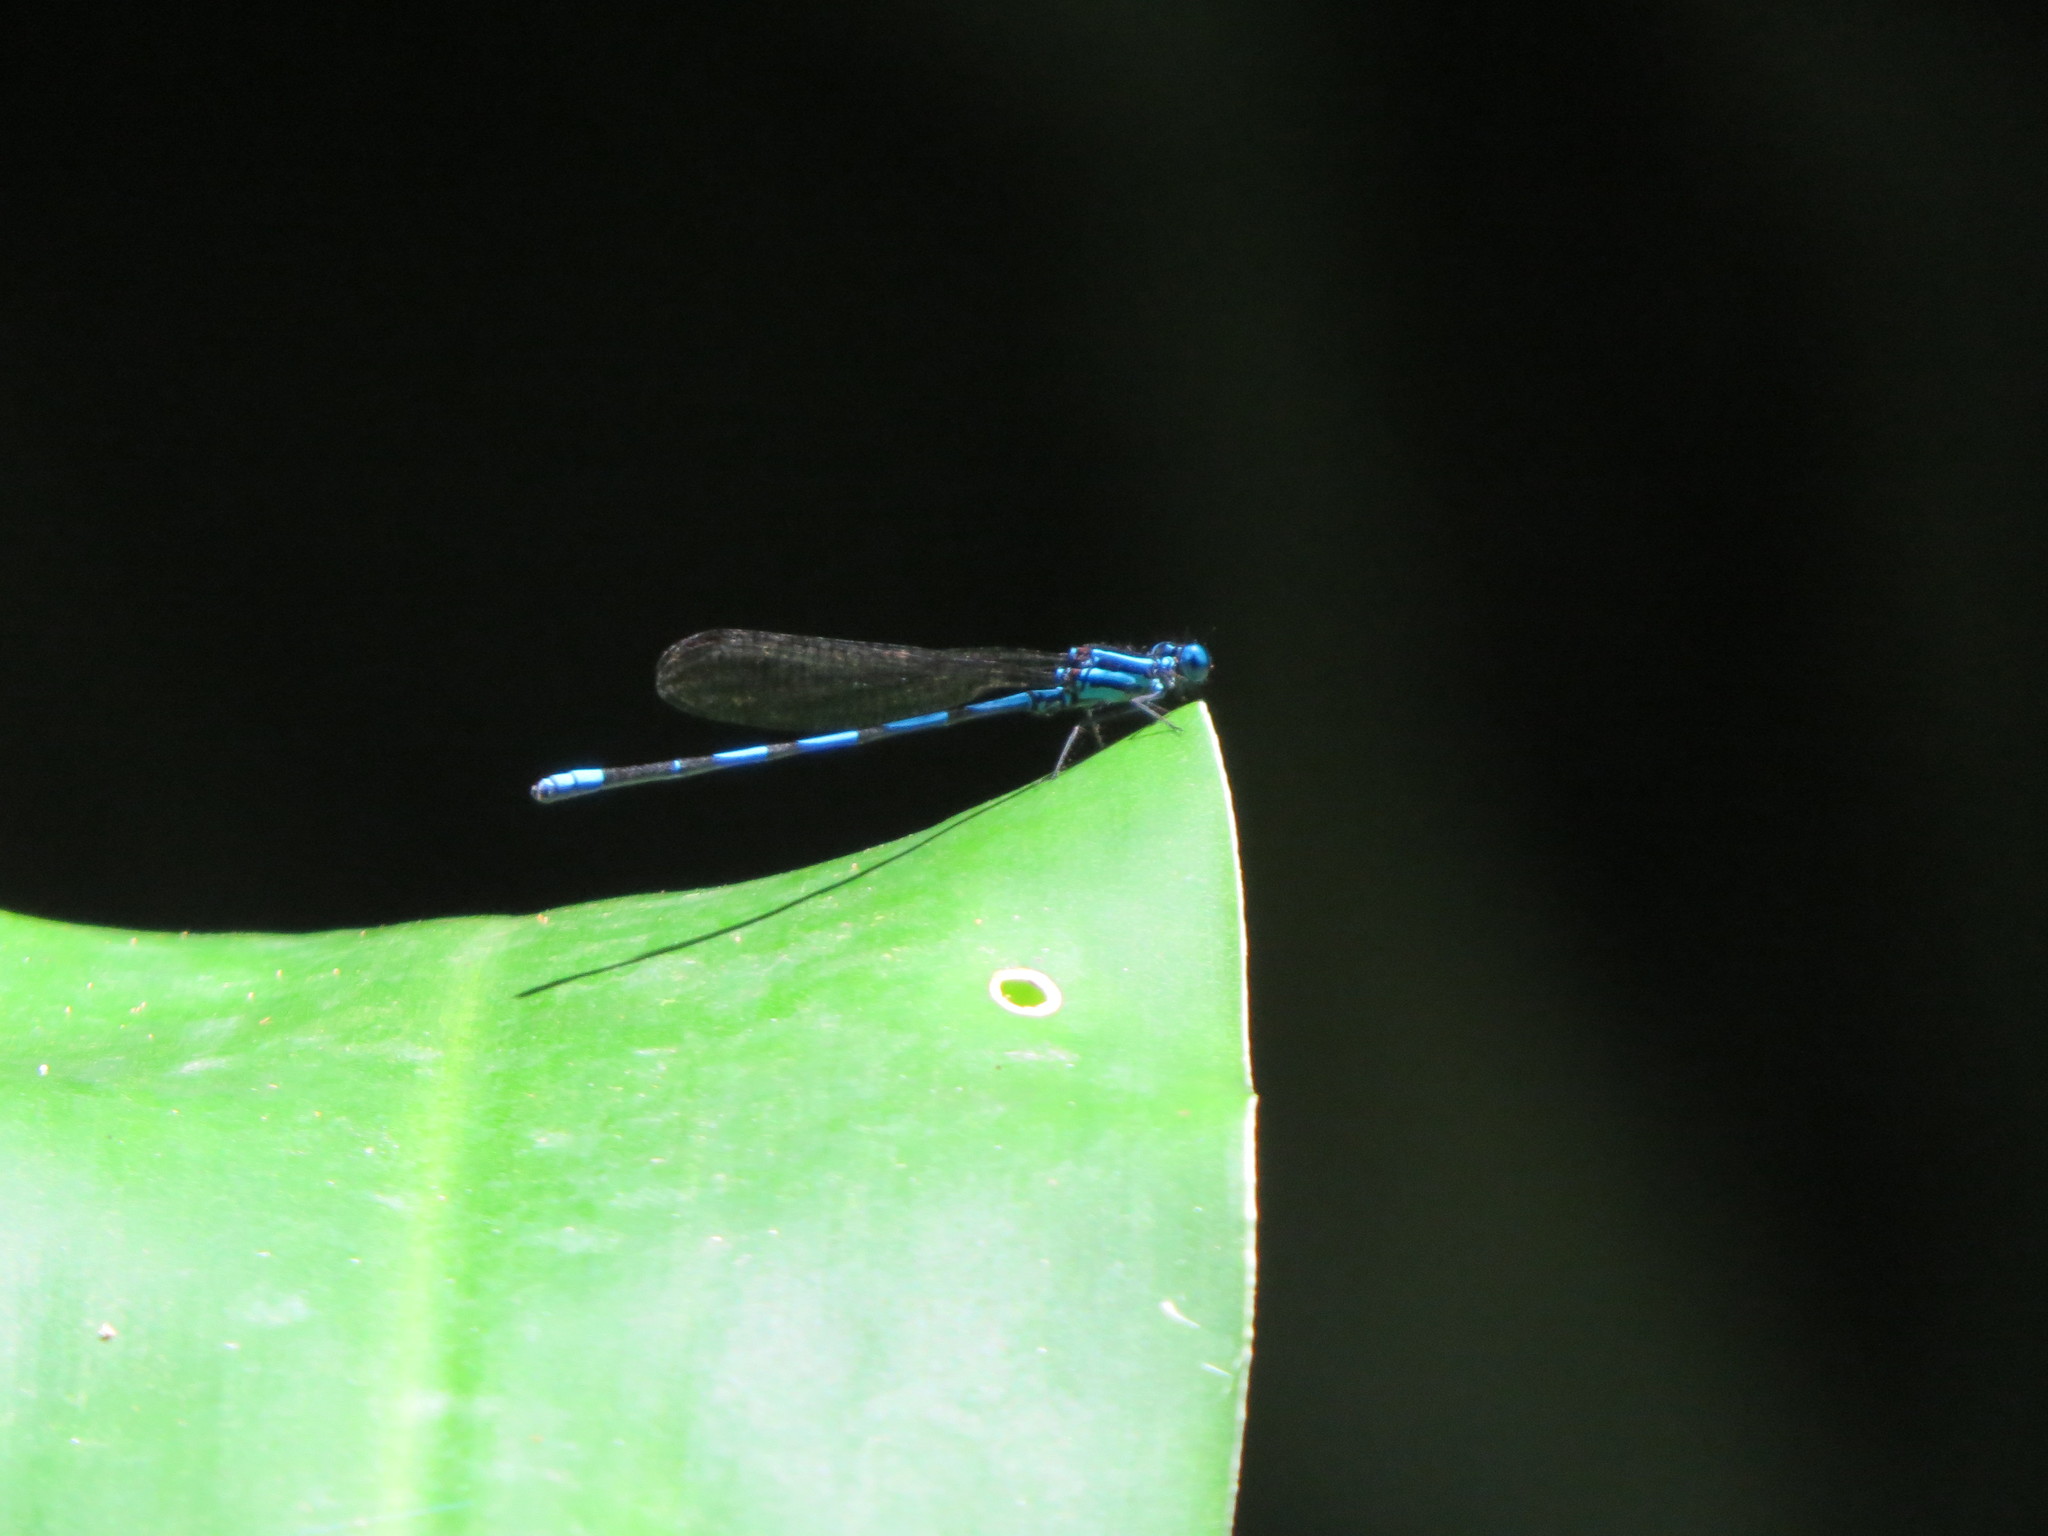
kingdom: Animalia
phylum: Arthropoda
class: Insecta
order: Odonata
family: Coenagrionidae
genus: Argia
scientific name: Argia concinna
